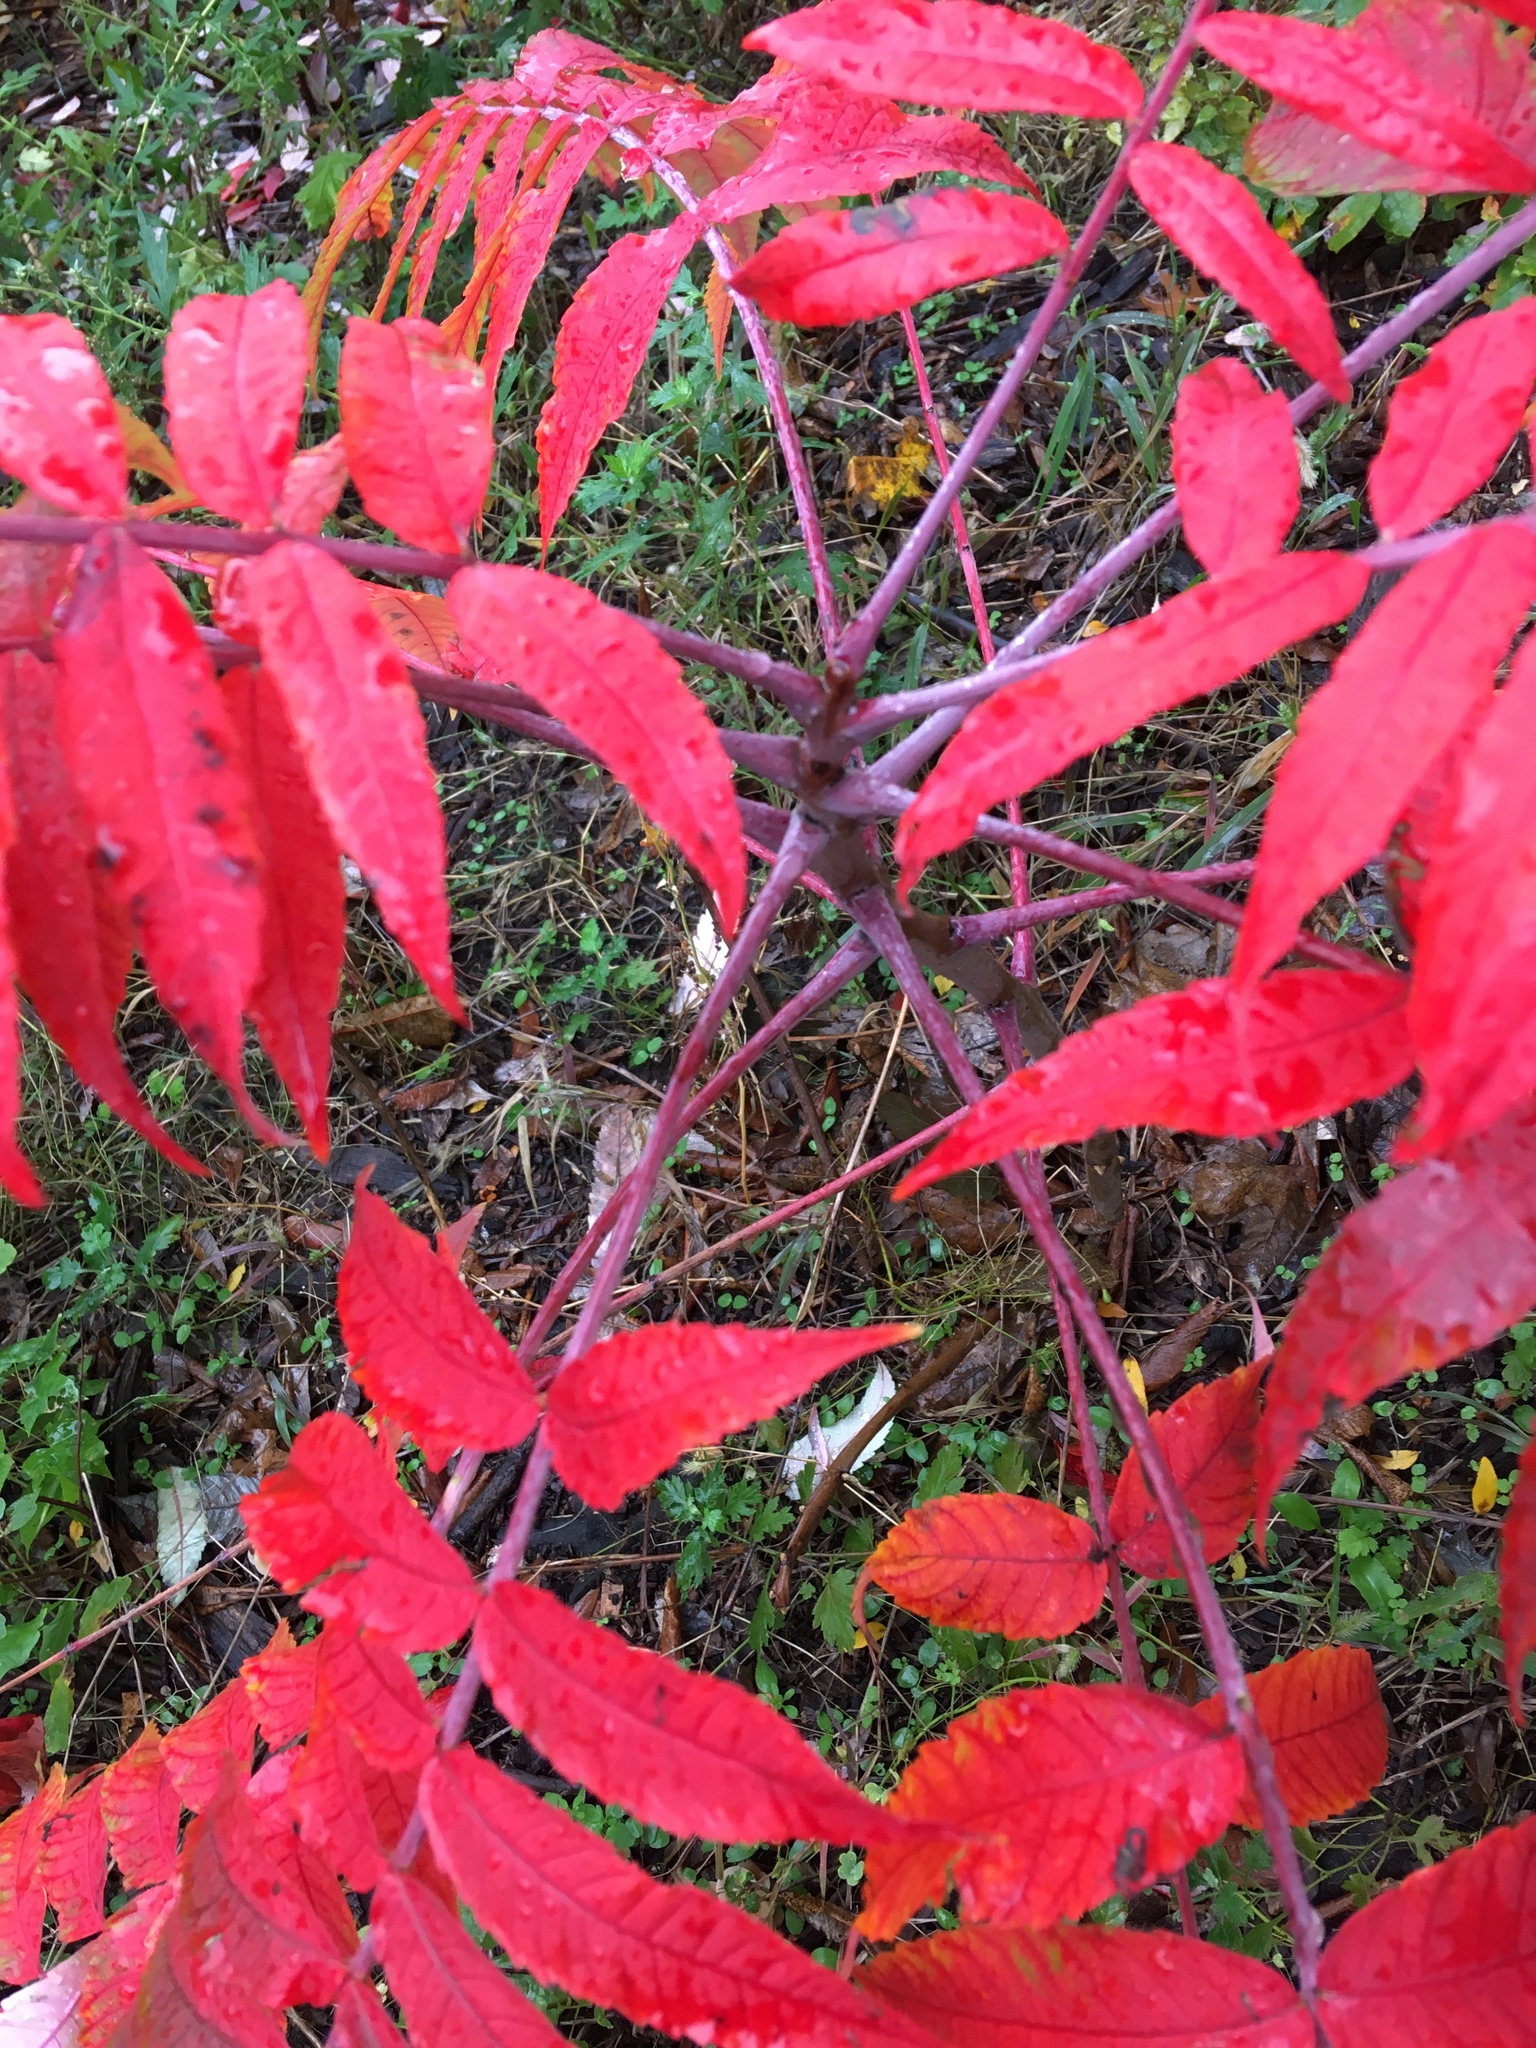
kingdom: Plantae
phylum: Tracheophyta
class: Magnoliopsida
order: Sapindales
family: Anacardiaceae
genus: Rhus
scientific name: Rhus glabra
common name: Scarlet sumac
